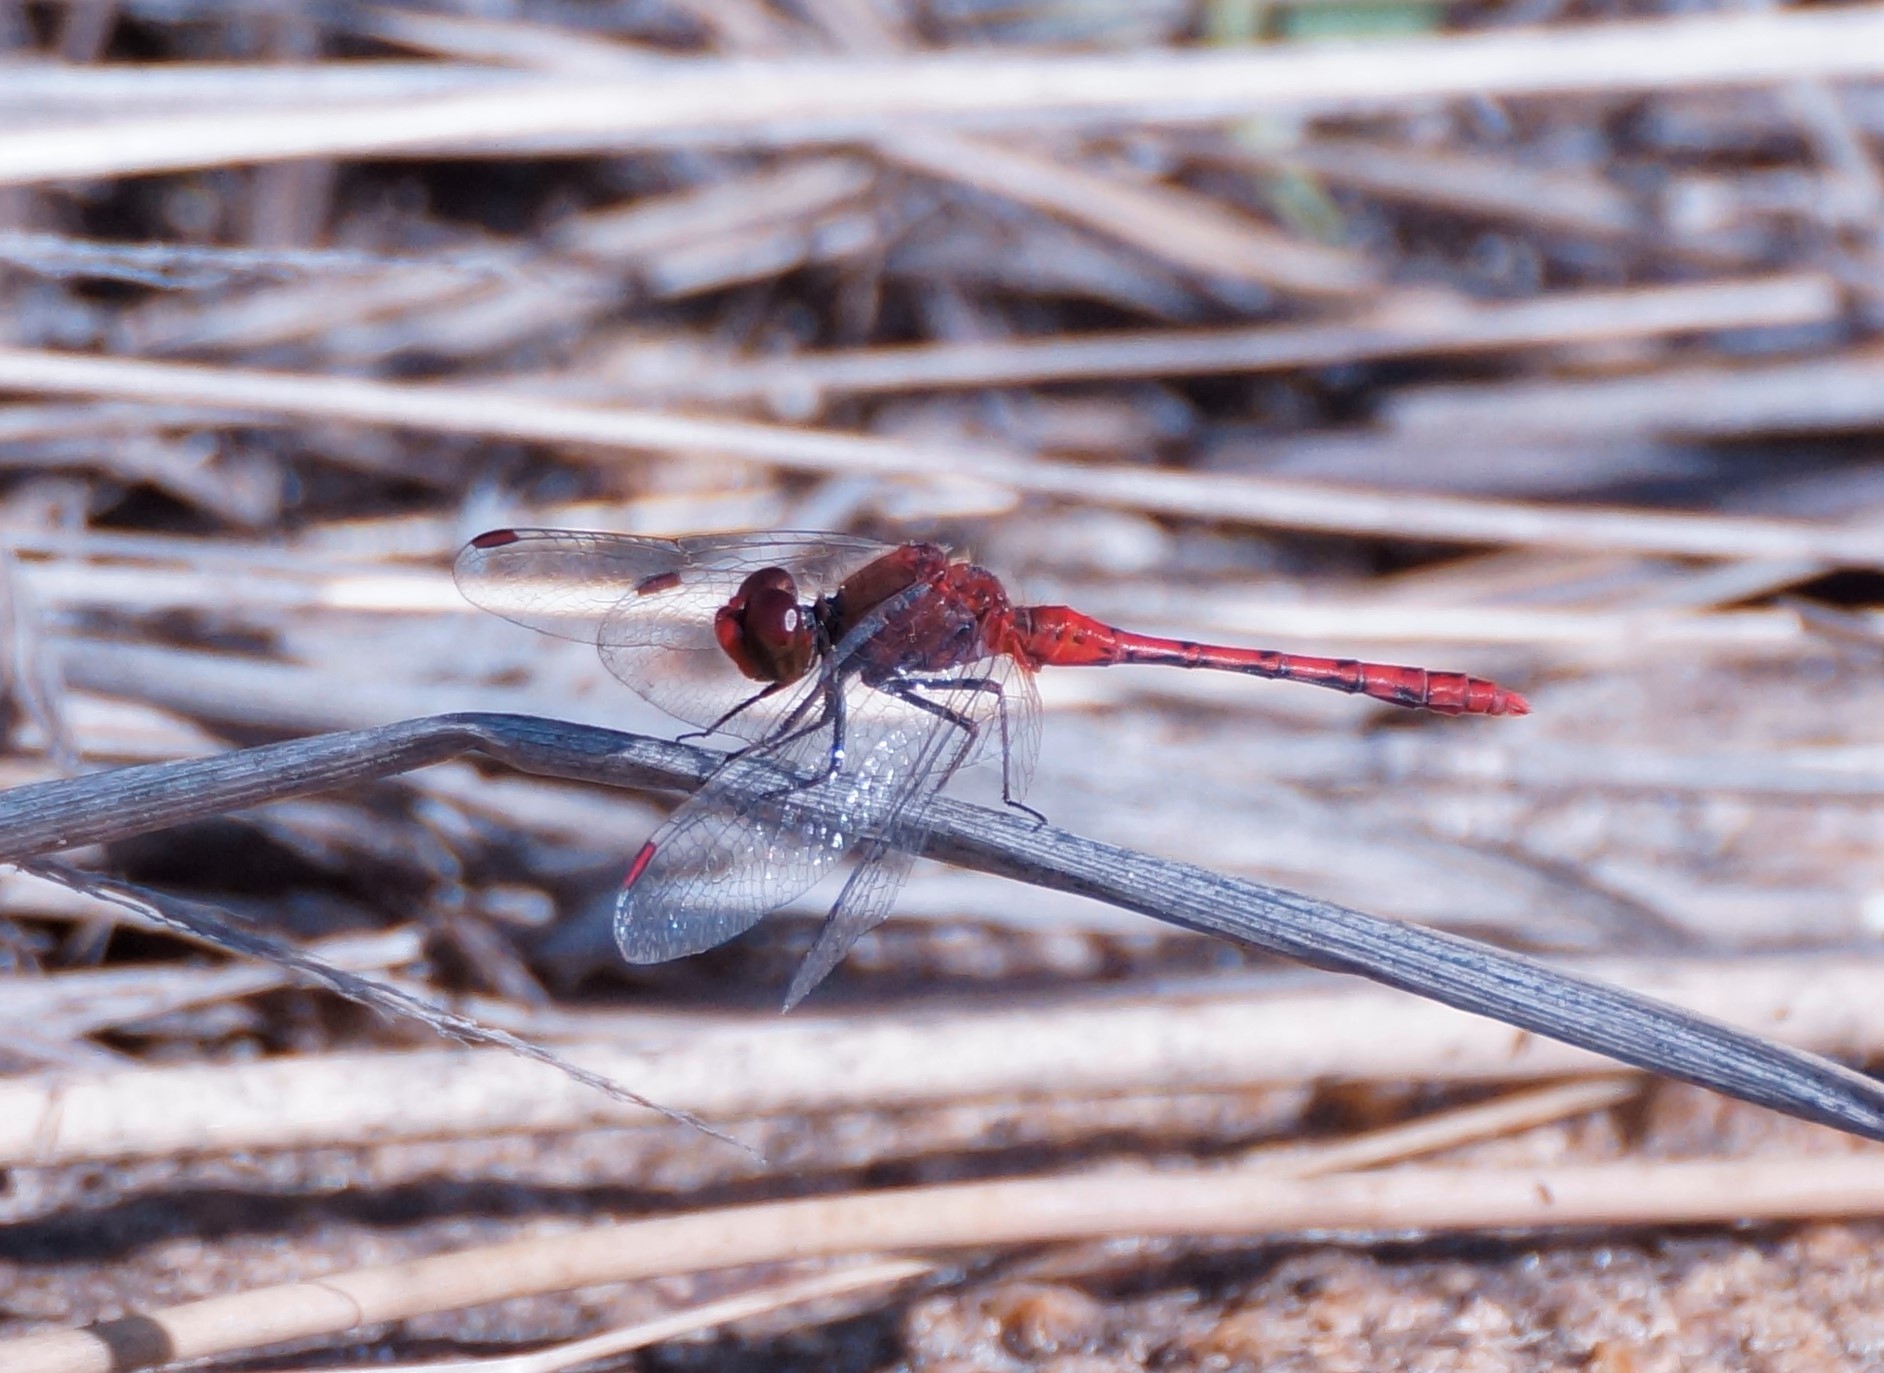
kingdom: Animalia
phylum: Arthropoda
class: Insecta
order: Odonata
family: Libellulidae
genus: Diplacodes
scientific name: Diplacodes bipunctata
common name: Red percher dragonfly
